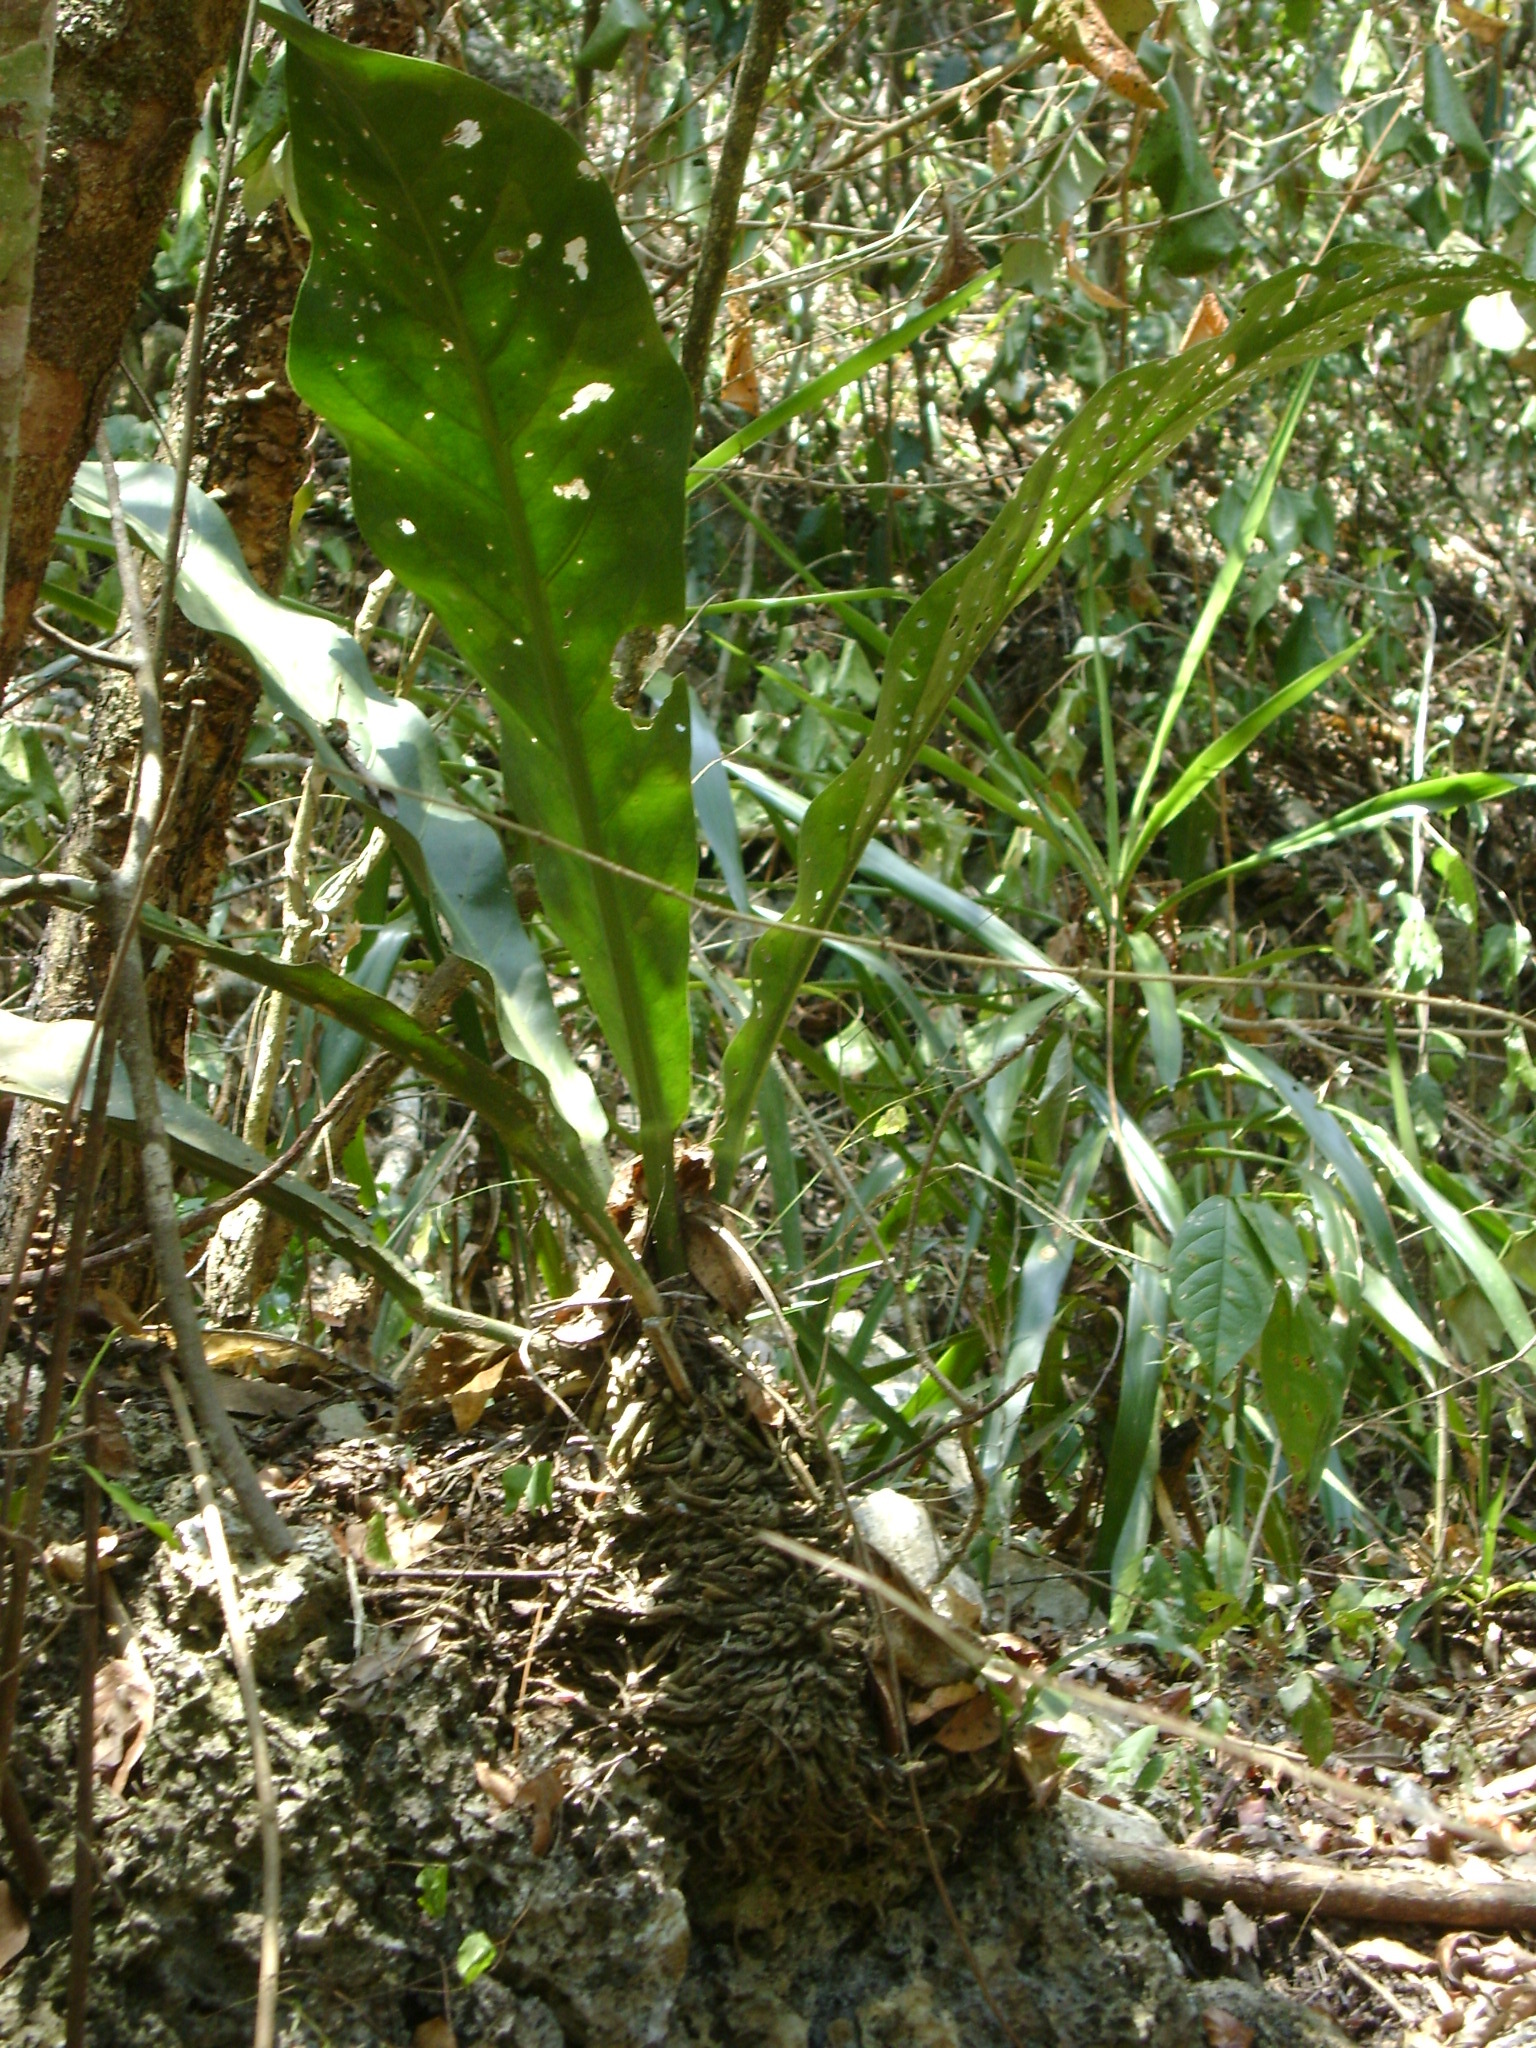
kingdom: Plantae
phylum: Tracheophyta
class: Liliopsida
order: Alismatales
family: Araceae
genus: Anthurium
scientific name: Anthurium schlechtendalii
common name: Laceleaf
